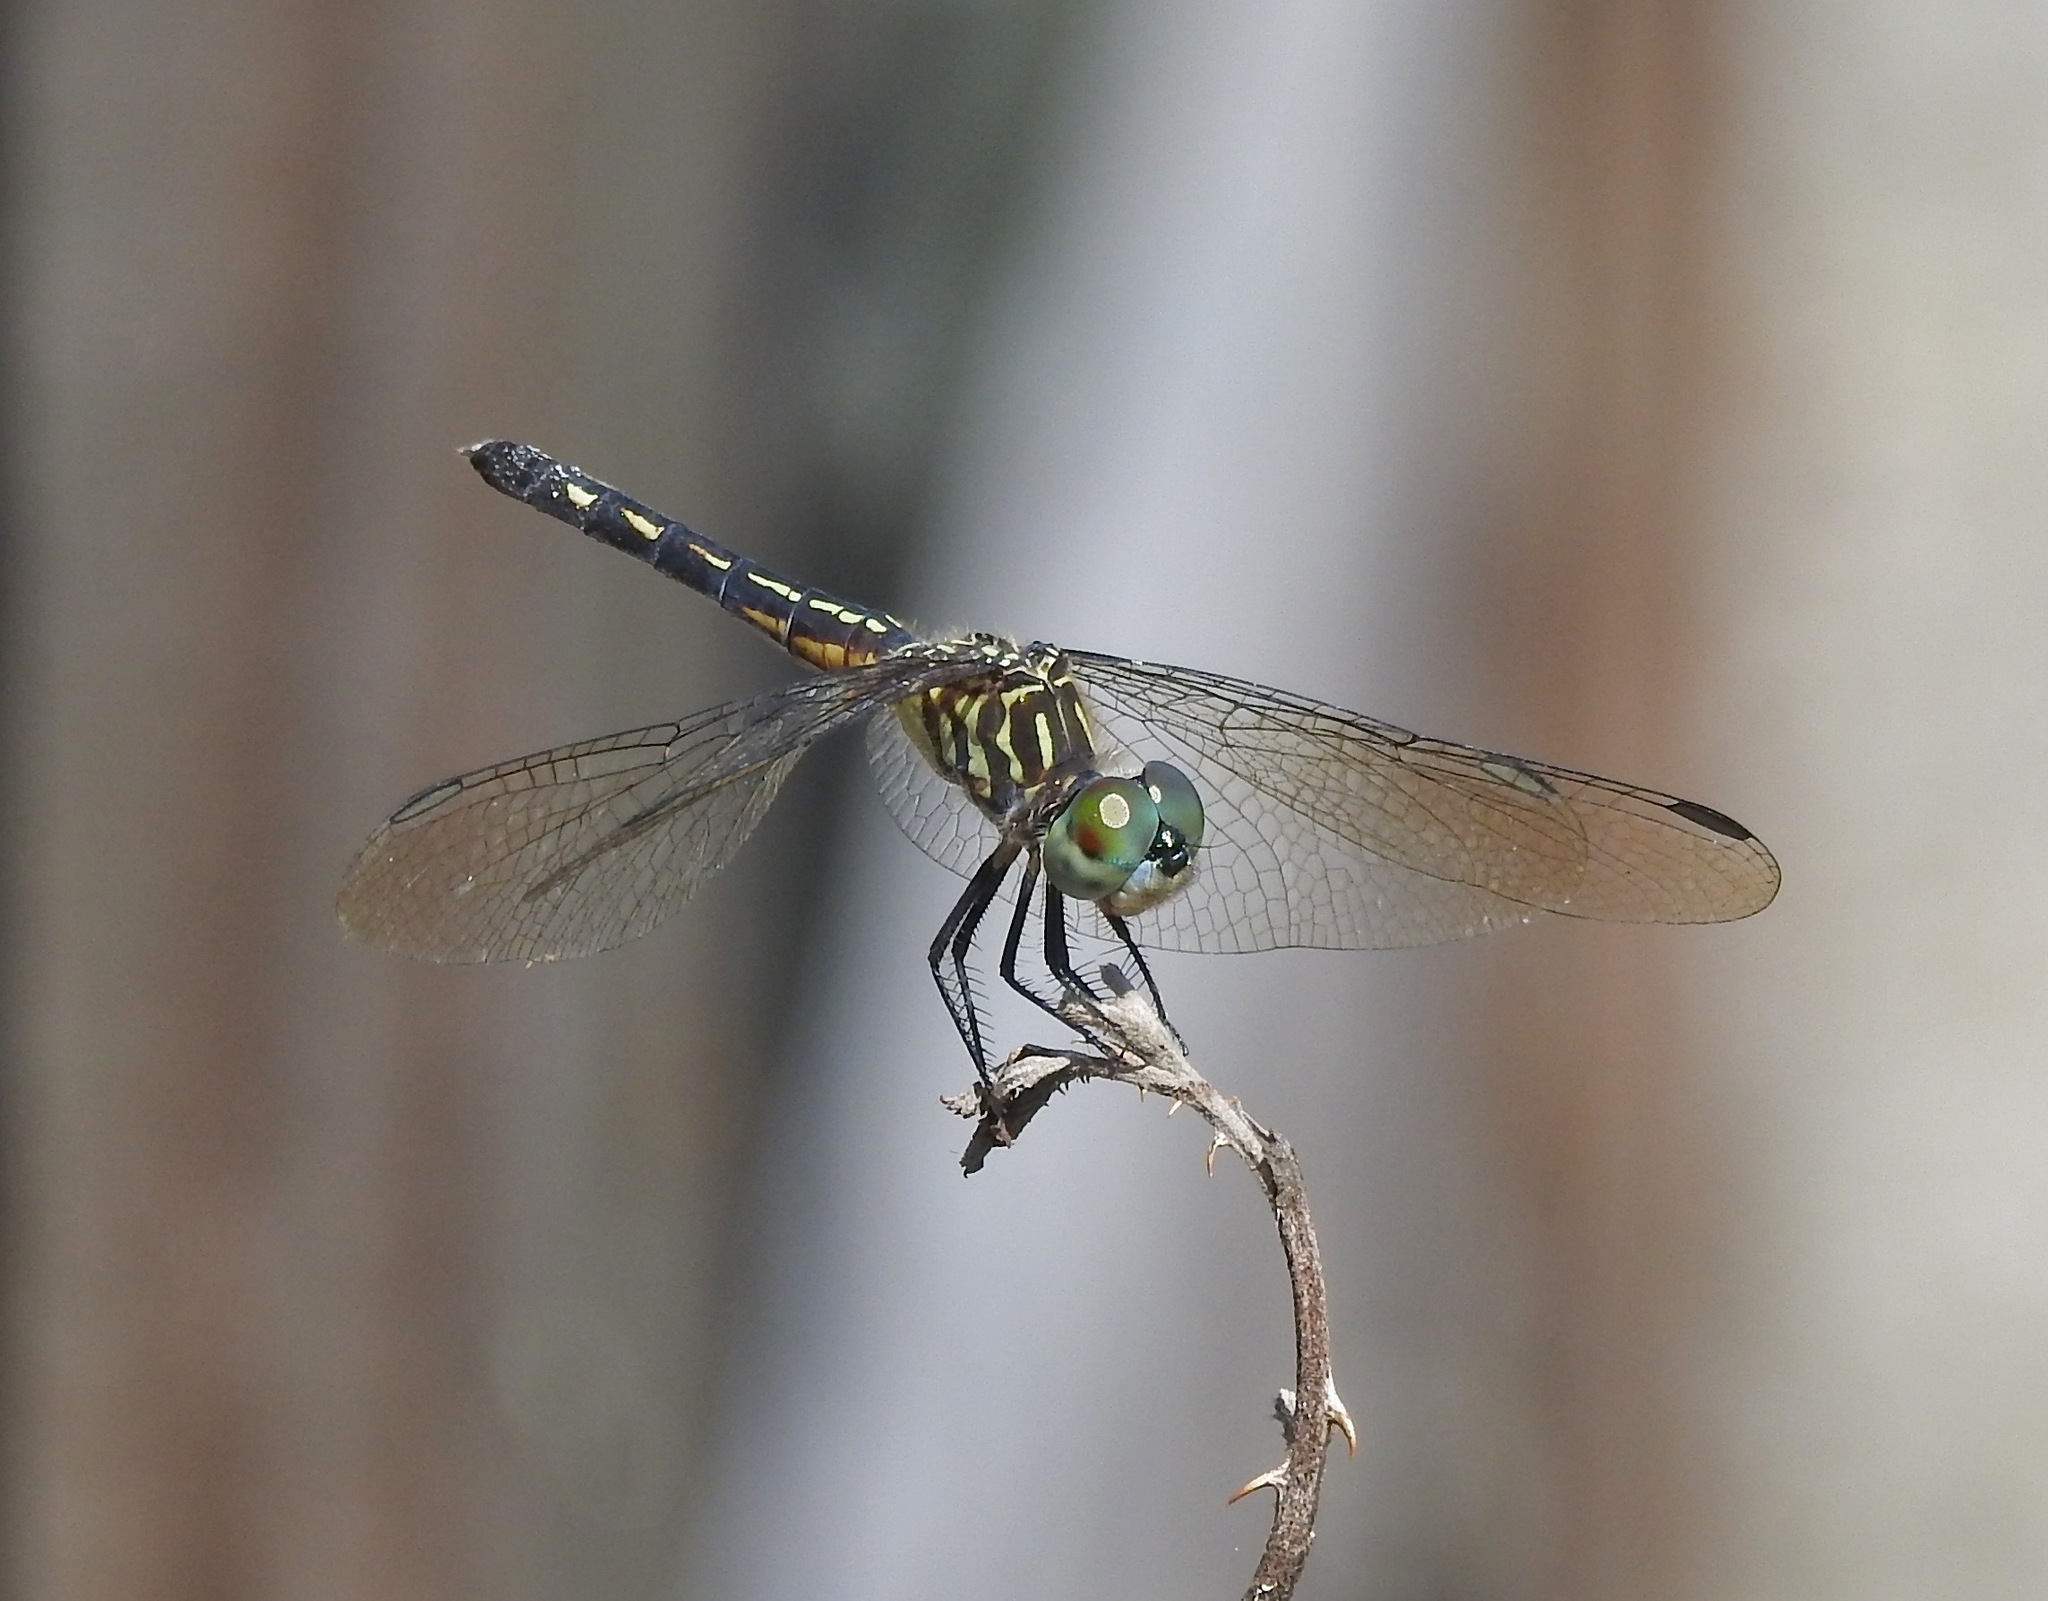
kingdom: Animalia
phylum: Arthropoda
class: Insecta
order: Odonata
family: Libellulidae
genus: Pachydiplax
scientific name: Pachydiplax longipennis
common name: Blue dasher
